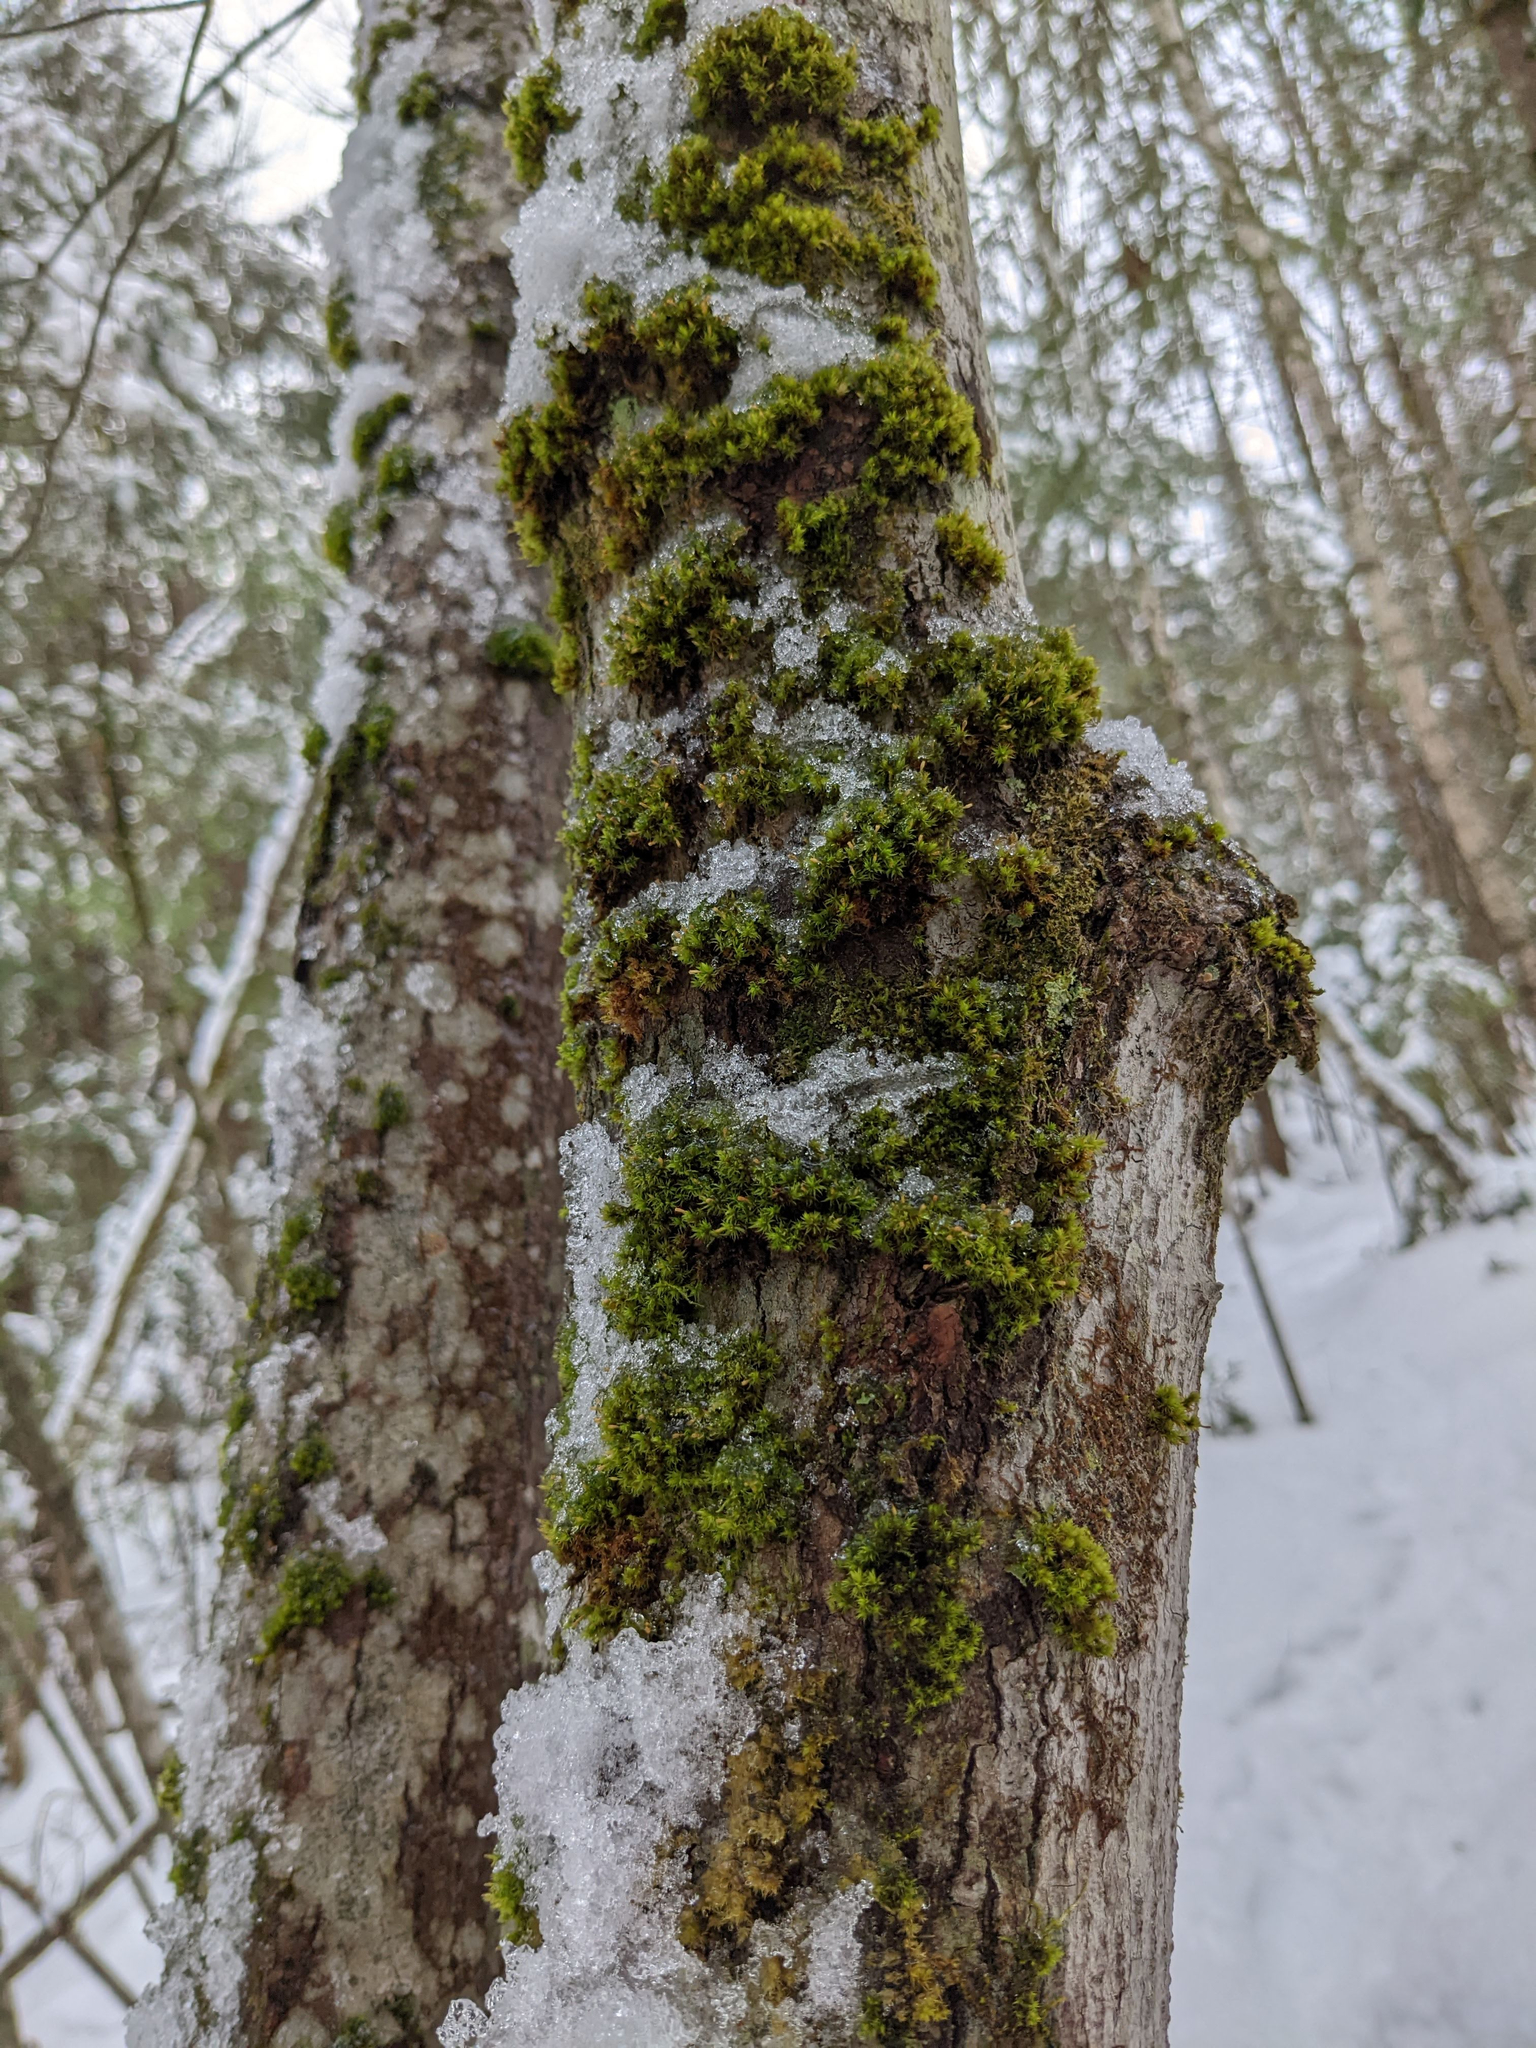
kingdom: Plantae
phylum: Bryophyta
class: Bryopsida
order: Orthotrichales
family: Orthotrichaceae
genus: Ulota
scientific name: Ulota crispa
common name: Crisped pincushion moss
